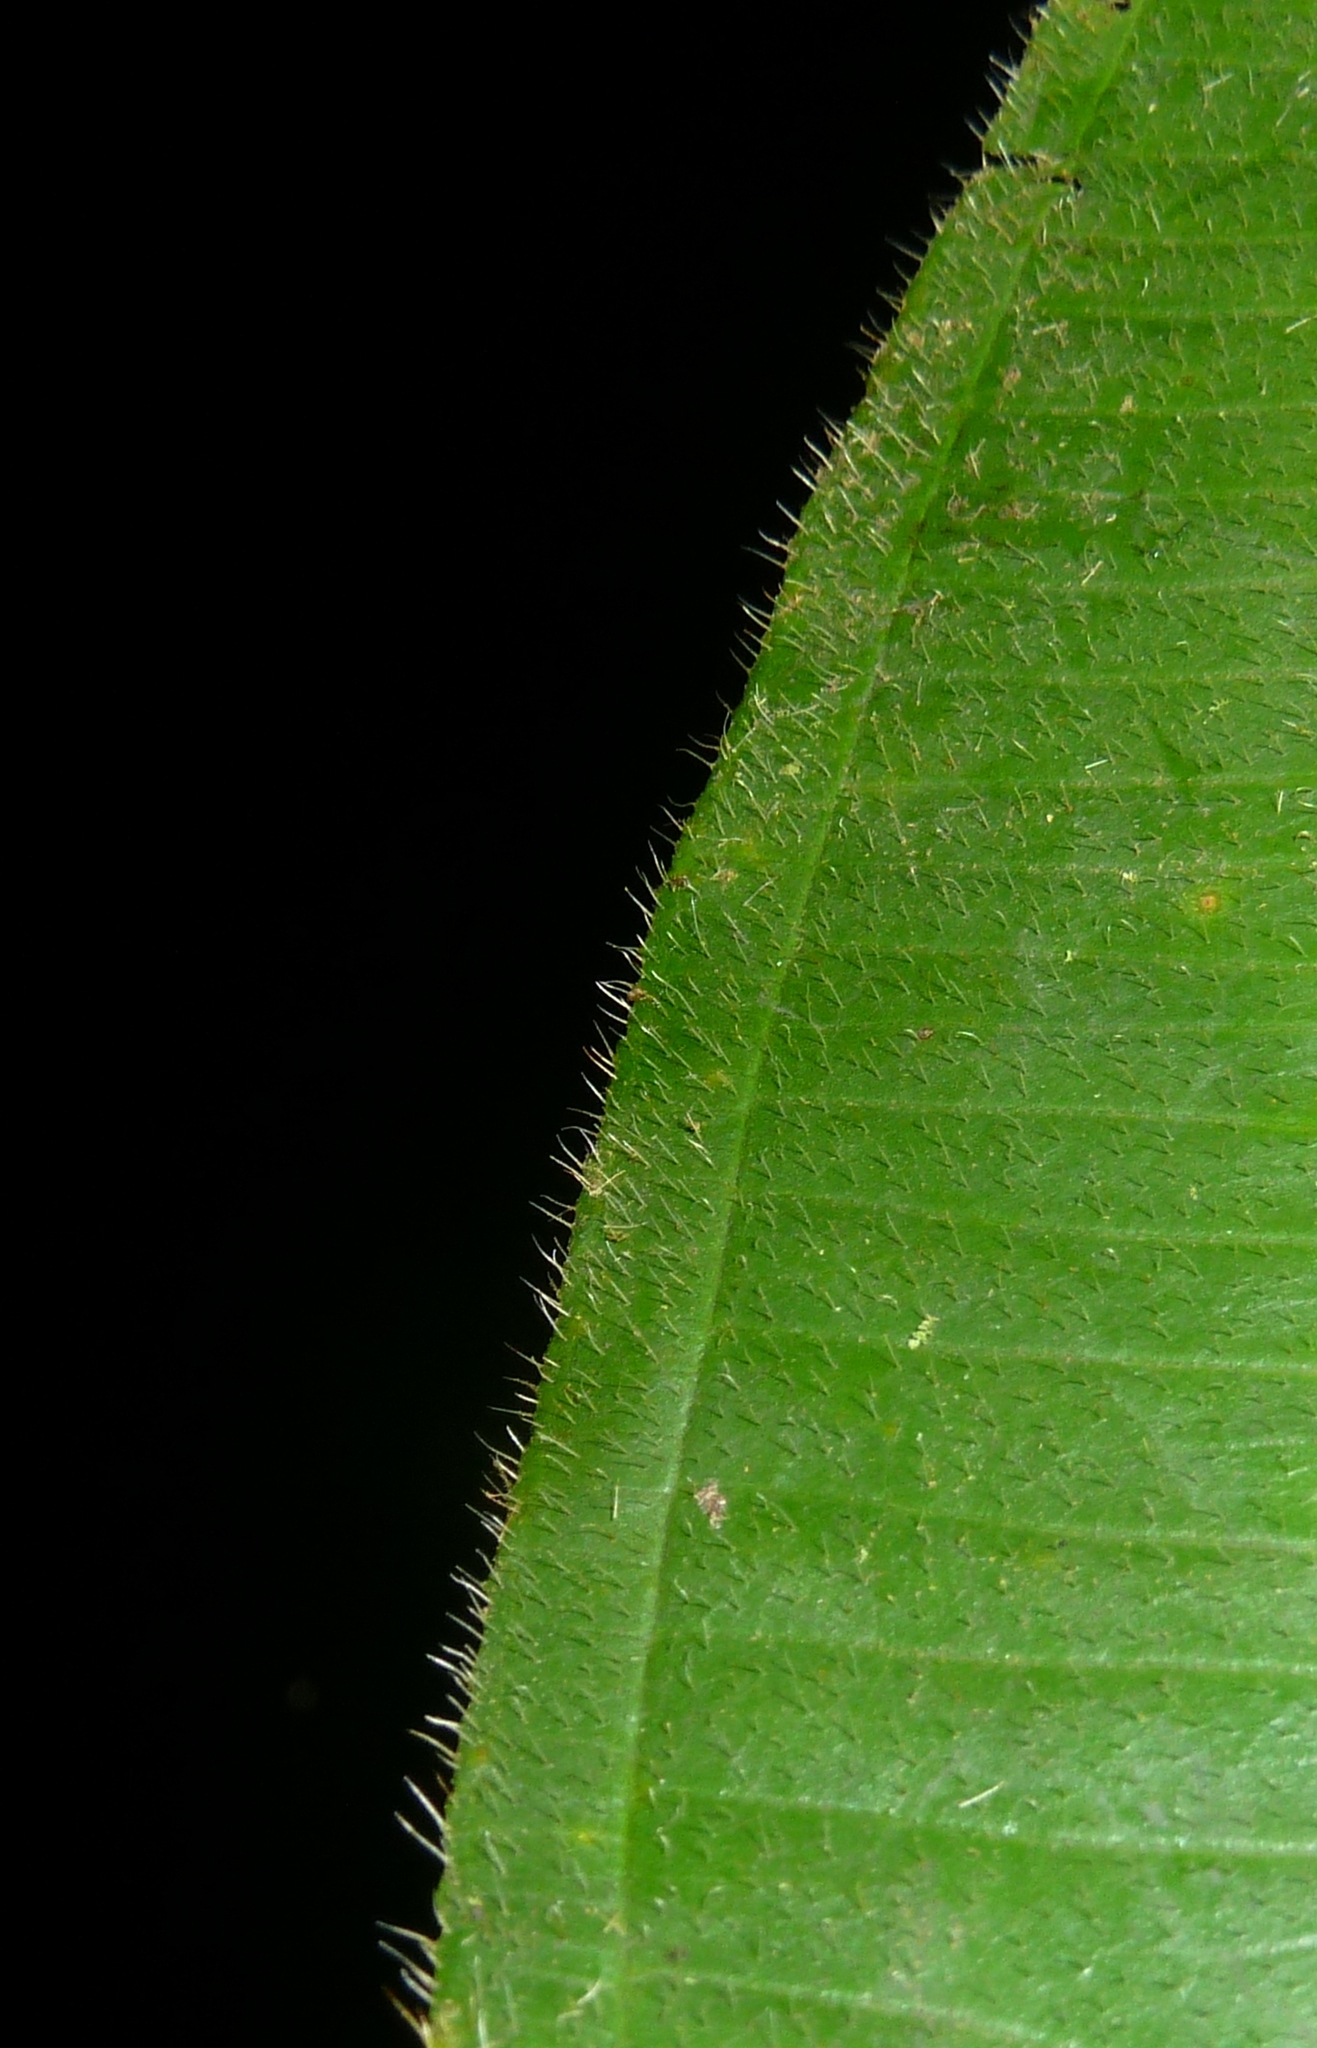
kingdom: Plantae
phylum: Tracheophyta
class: Magnoliopsida
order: Myrtales
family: Melastomataceae
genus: Miconia
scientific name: Miconia baillonii
